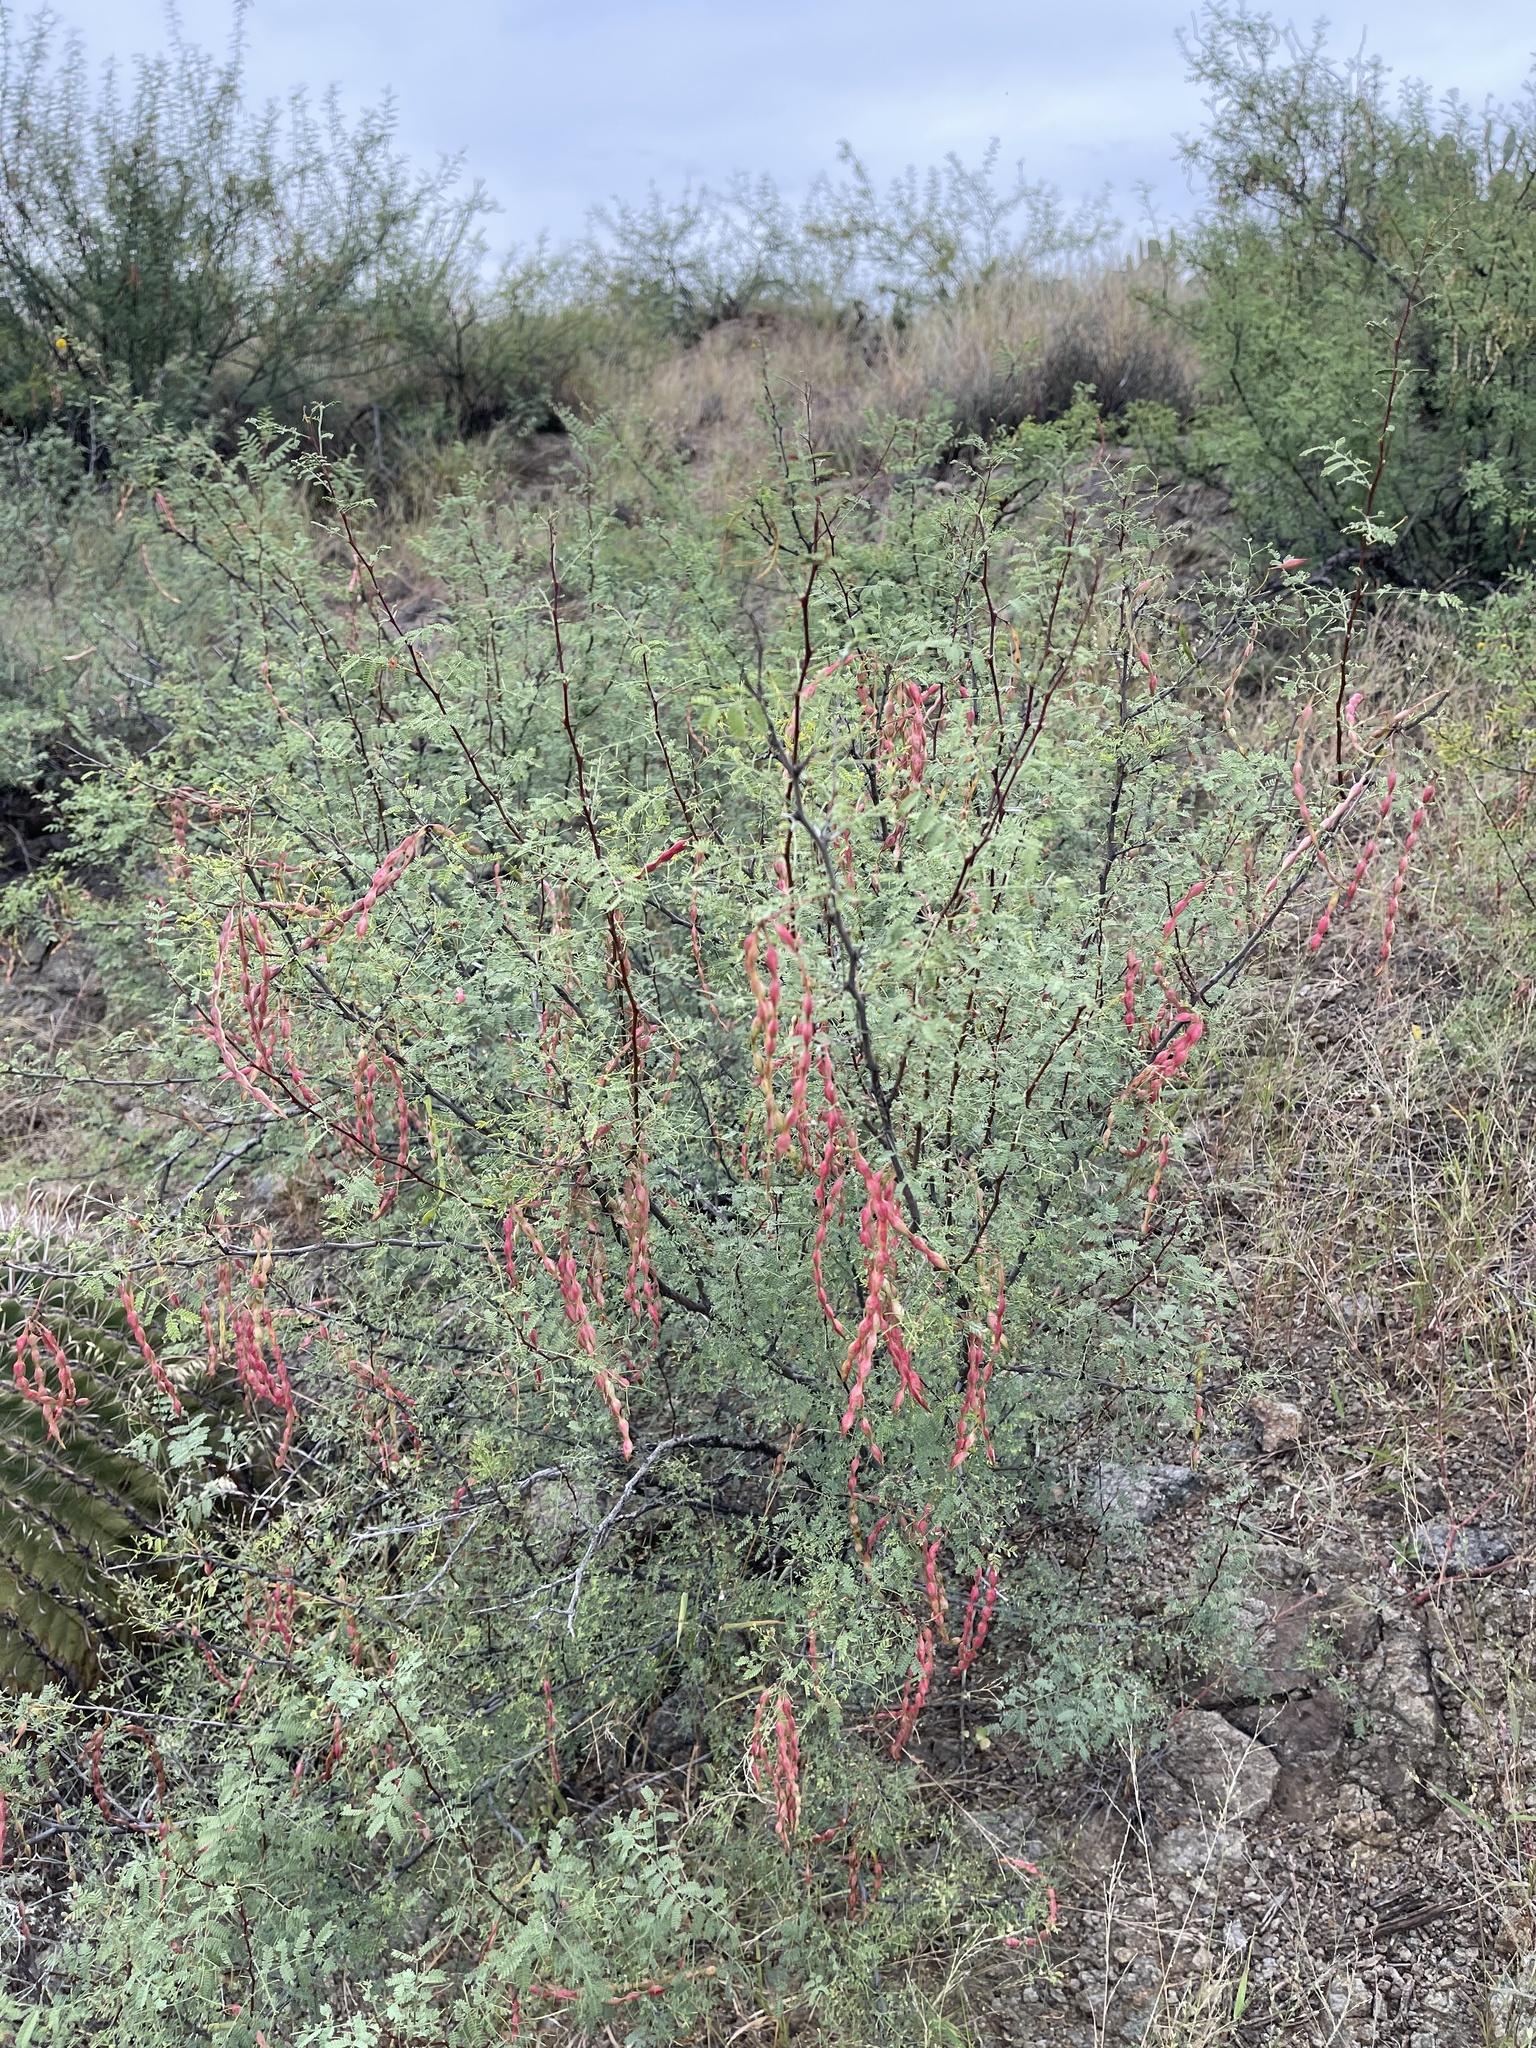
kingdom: Plantae
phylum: Tracheophyta
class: Magnoliopsida
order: Fabales
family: Fabaceae
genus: Vachellia
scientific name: Vachellia constricta
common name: Mescat acacia
